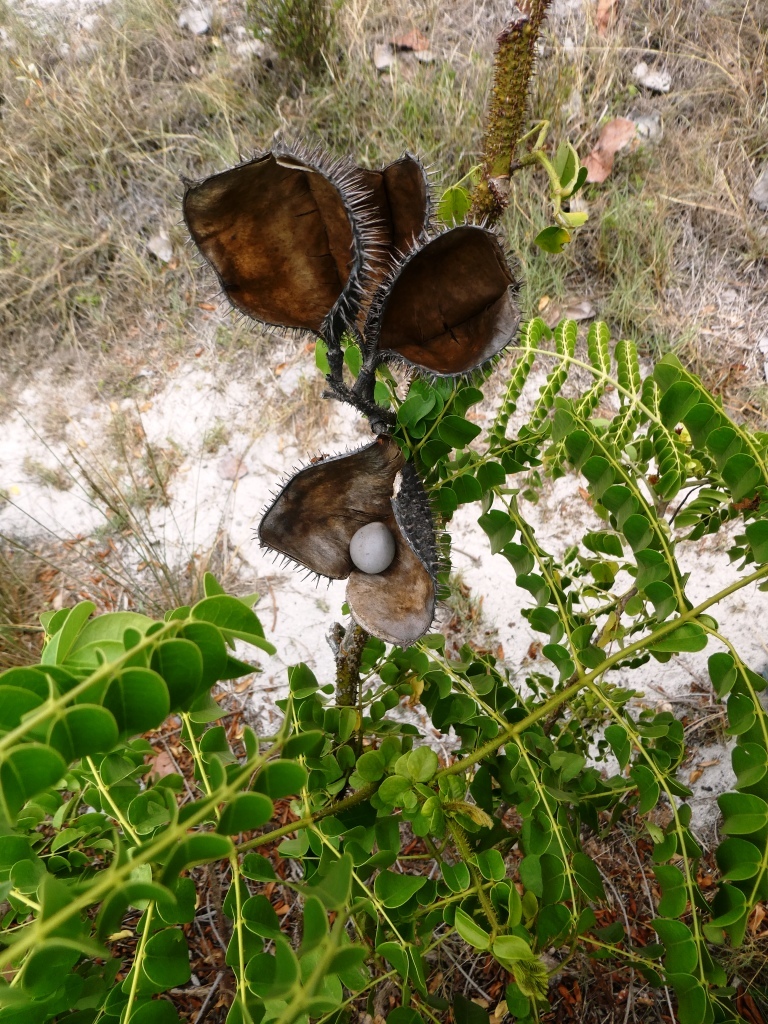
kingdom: Plantae
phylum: Tracheophyta
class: Magnoliopsida
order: Fabales
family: Fabaceae
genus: Guilandina
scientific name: Guilandina bonduc
